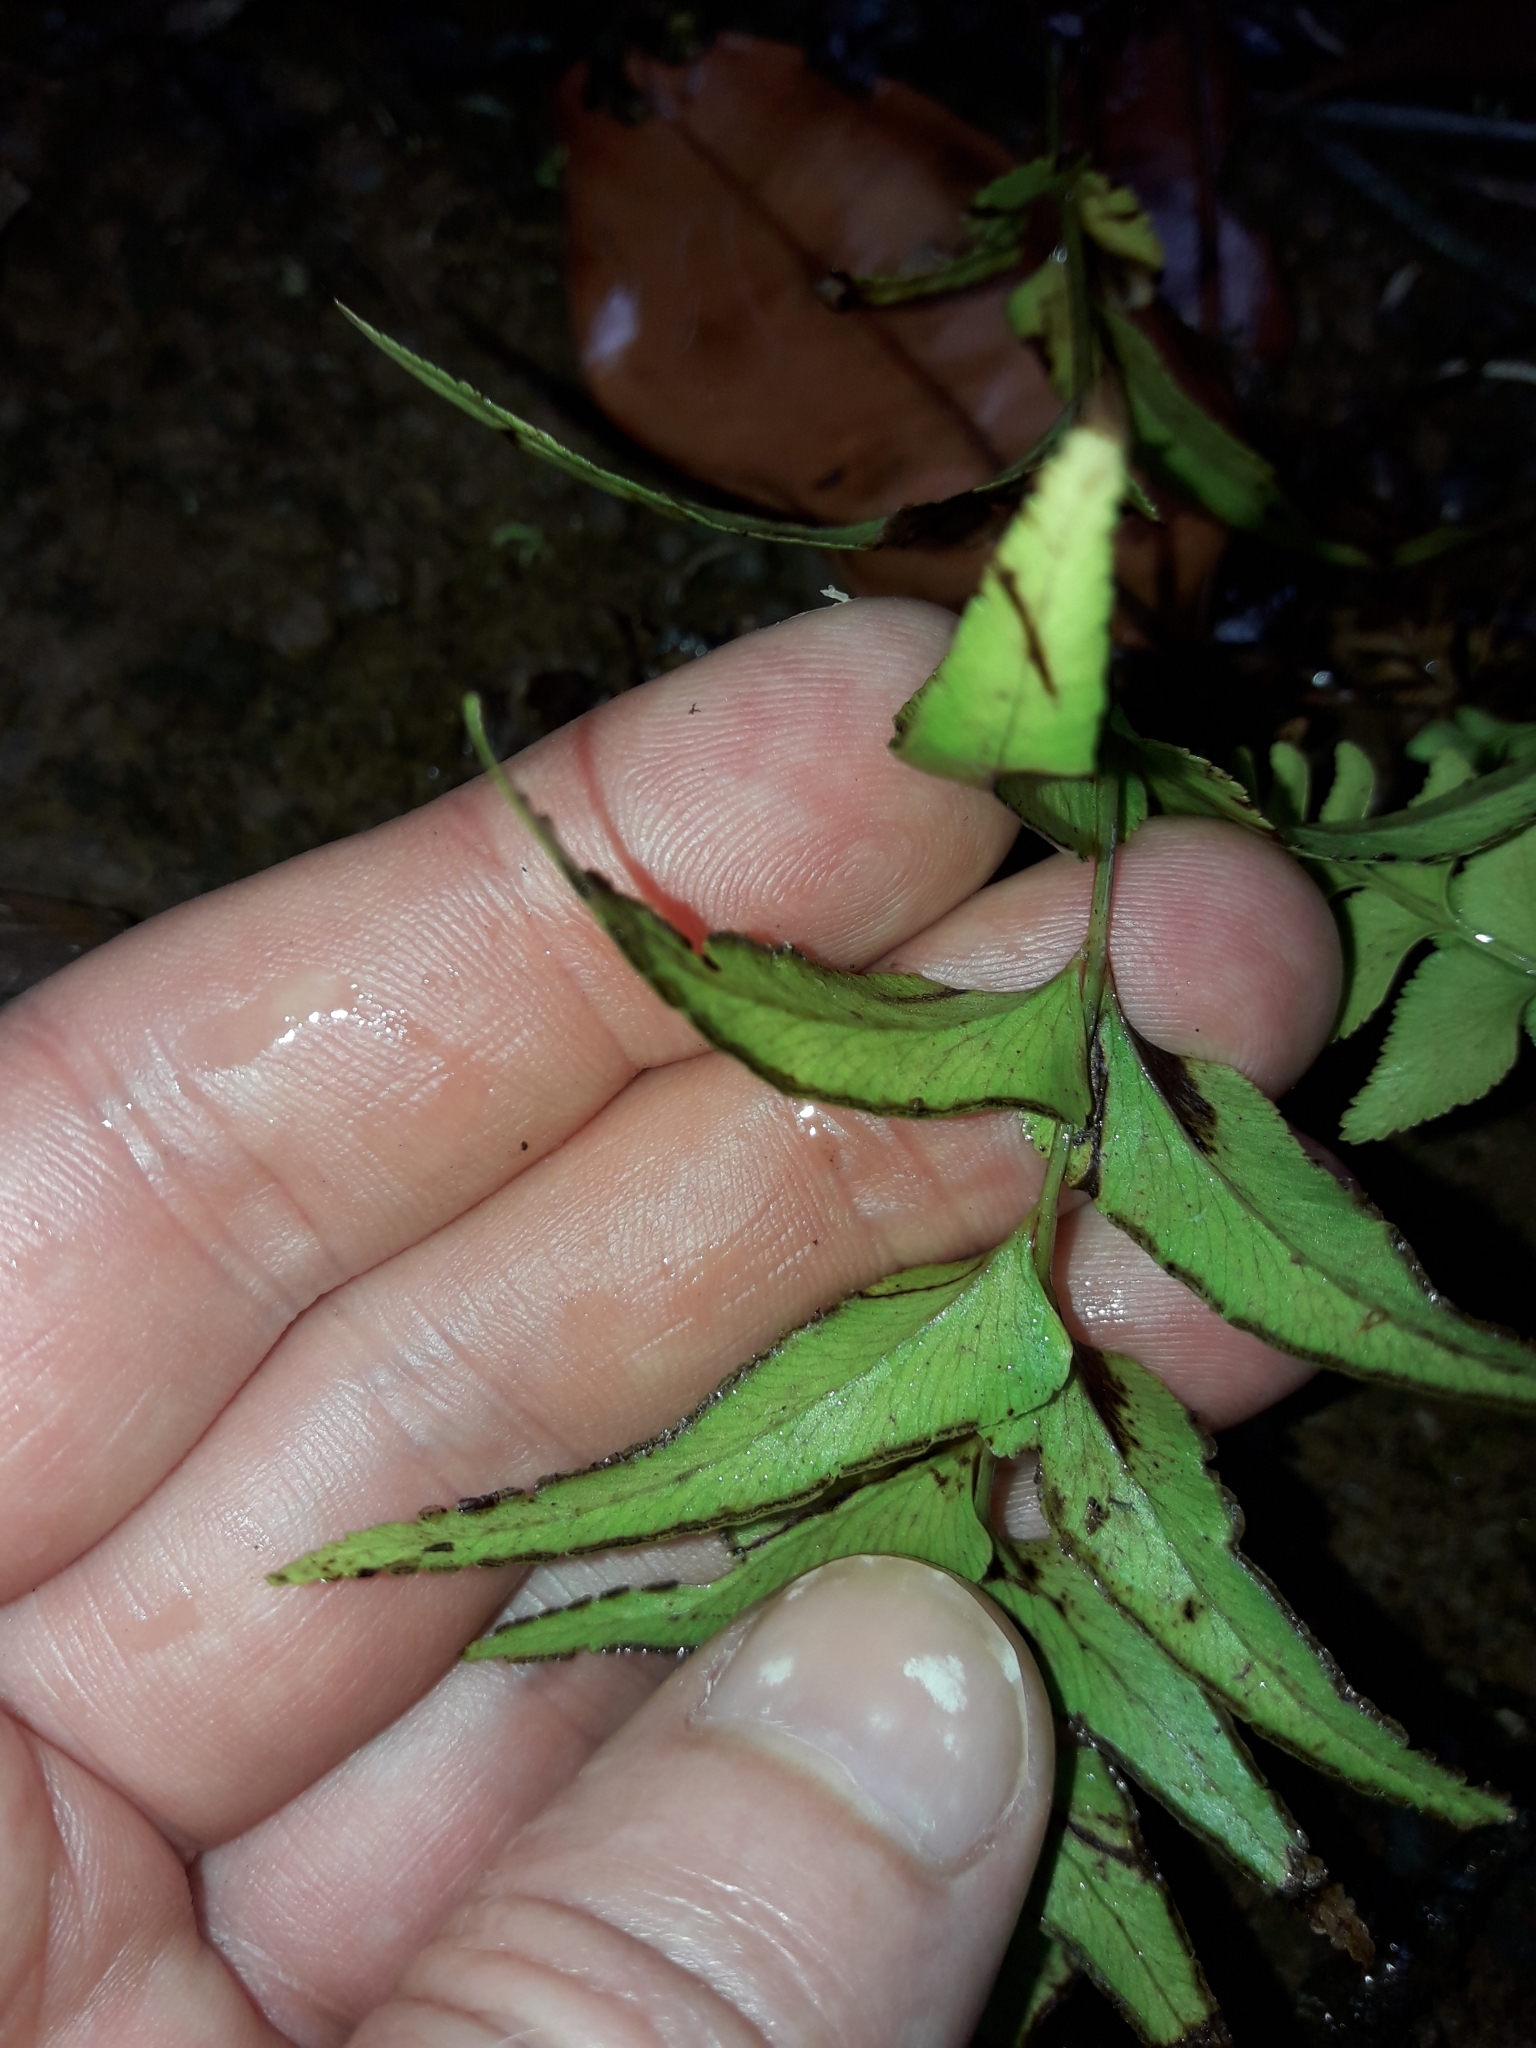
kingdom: Plantae
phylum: Tracheophyta
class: Polypodiopsida
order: Polypodiales
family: Lindsaeaceae
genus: Lindsaea
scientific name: Lindsaea agatii
